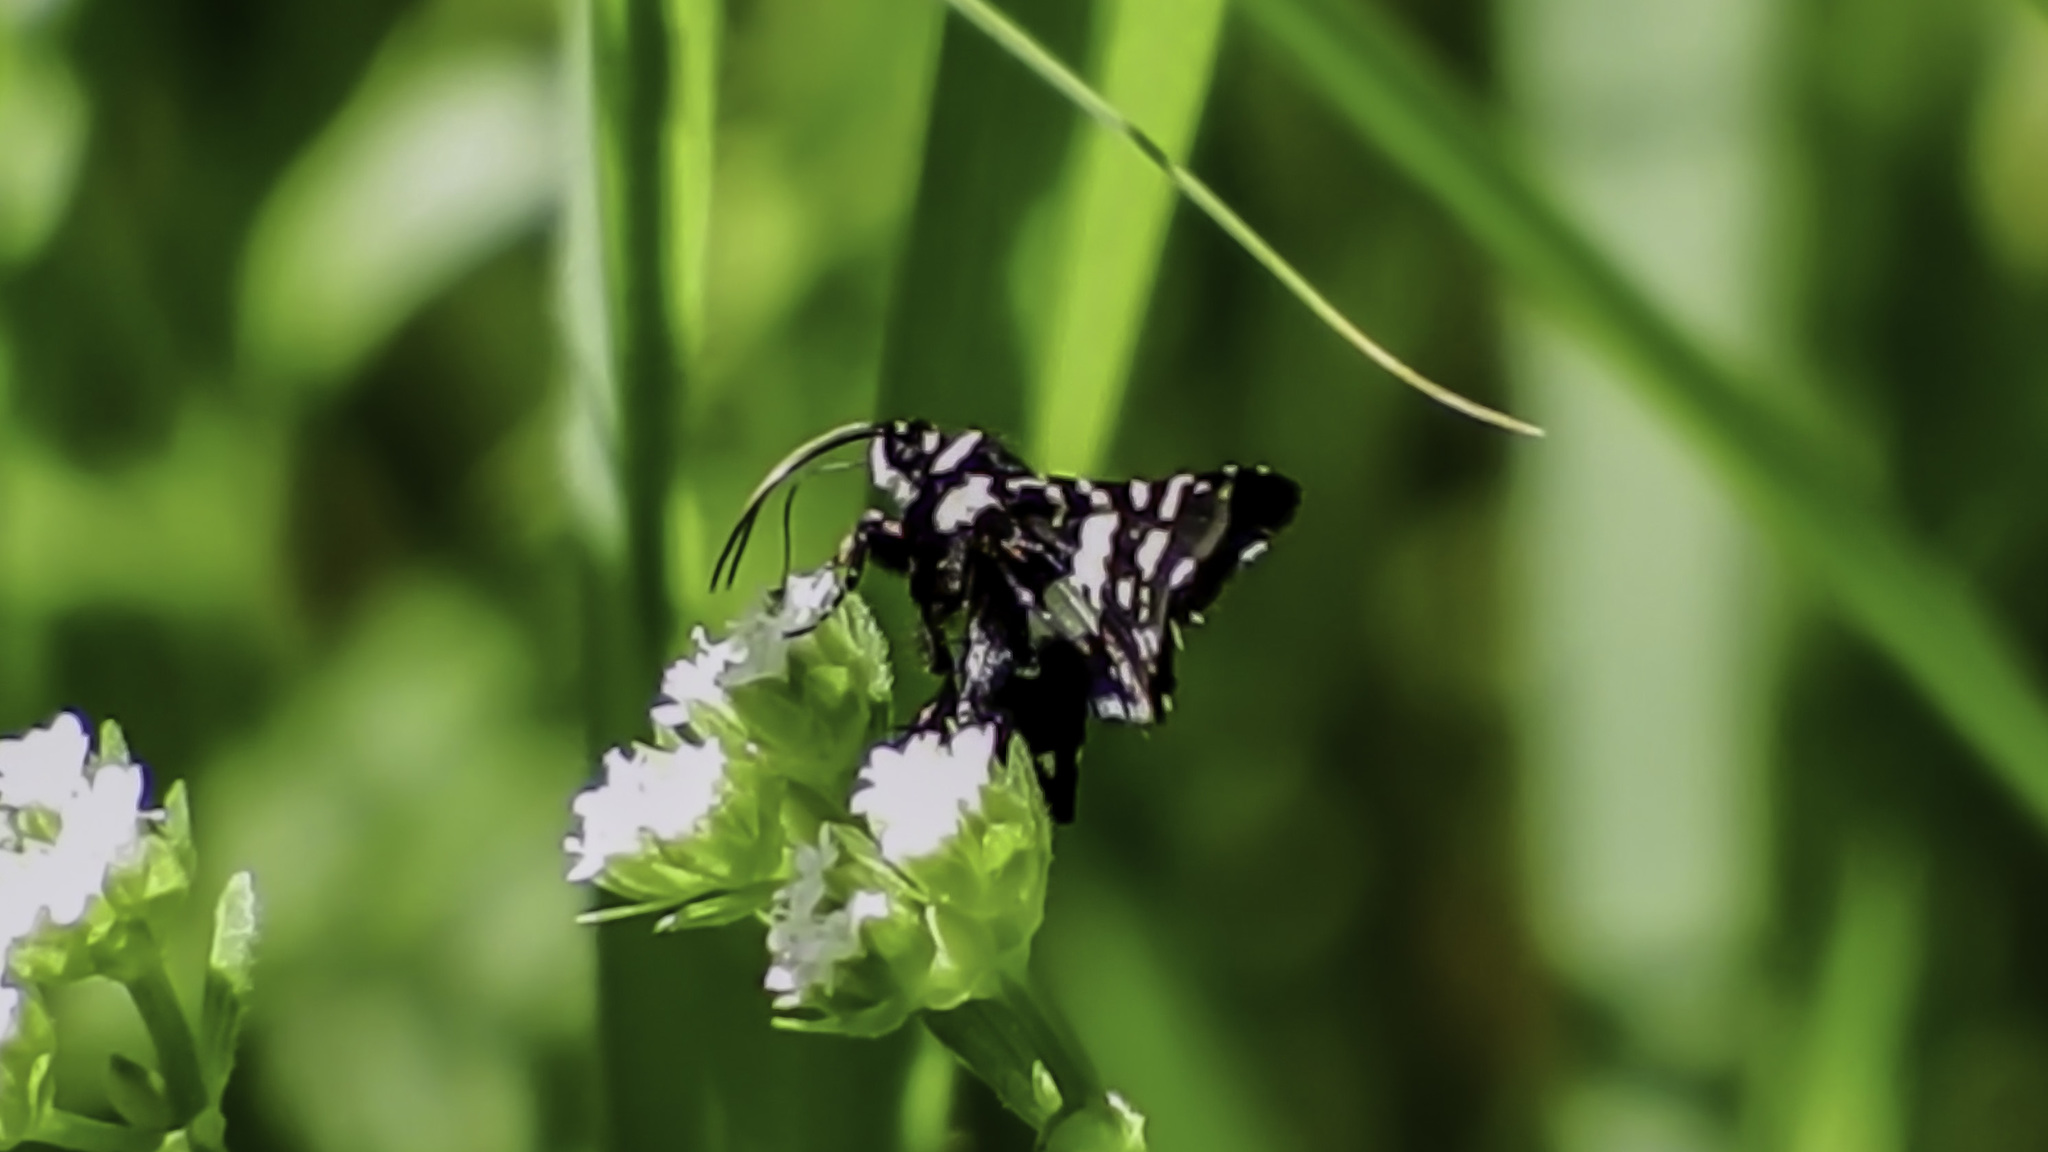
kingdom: Animalia
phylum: Arthropoda
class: Insecta
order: Lepidoptera
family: Thyrididae
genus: Pseudothyris
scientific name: Pseudothyris sepulchralis
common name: Mournful thyris moth
